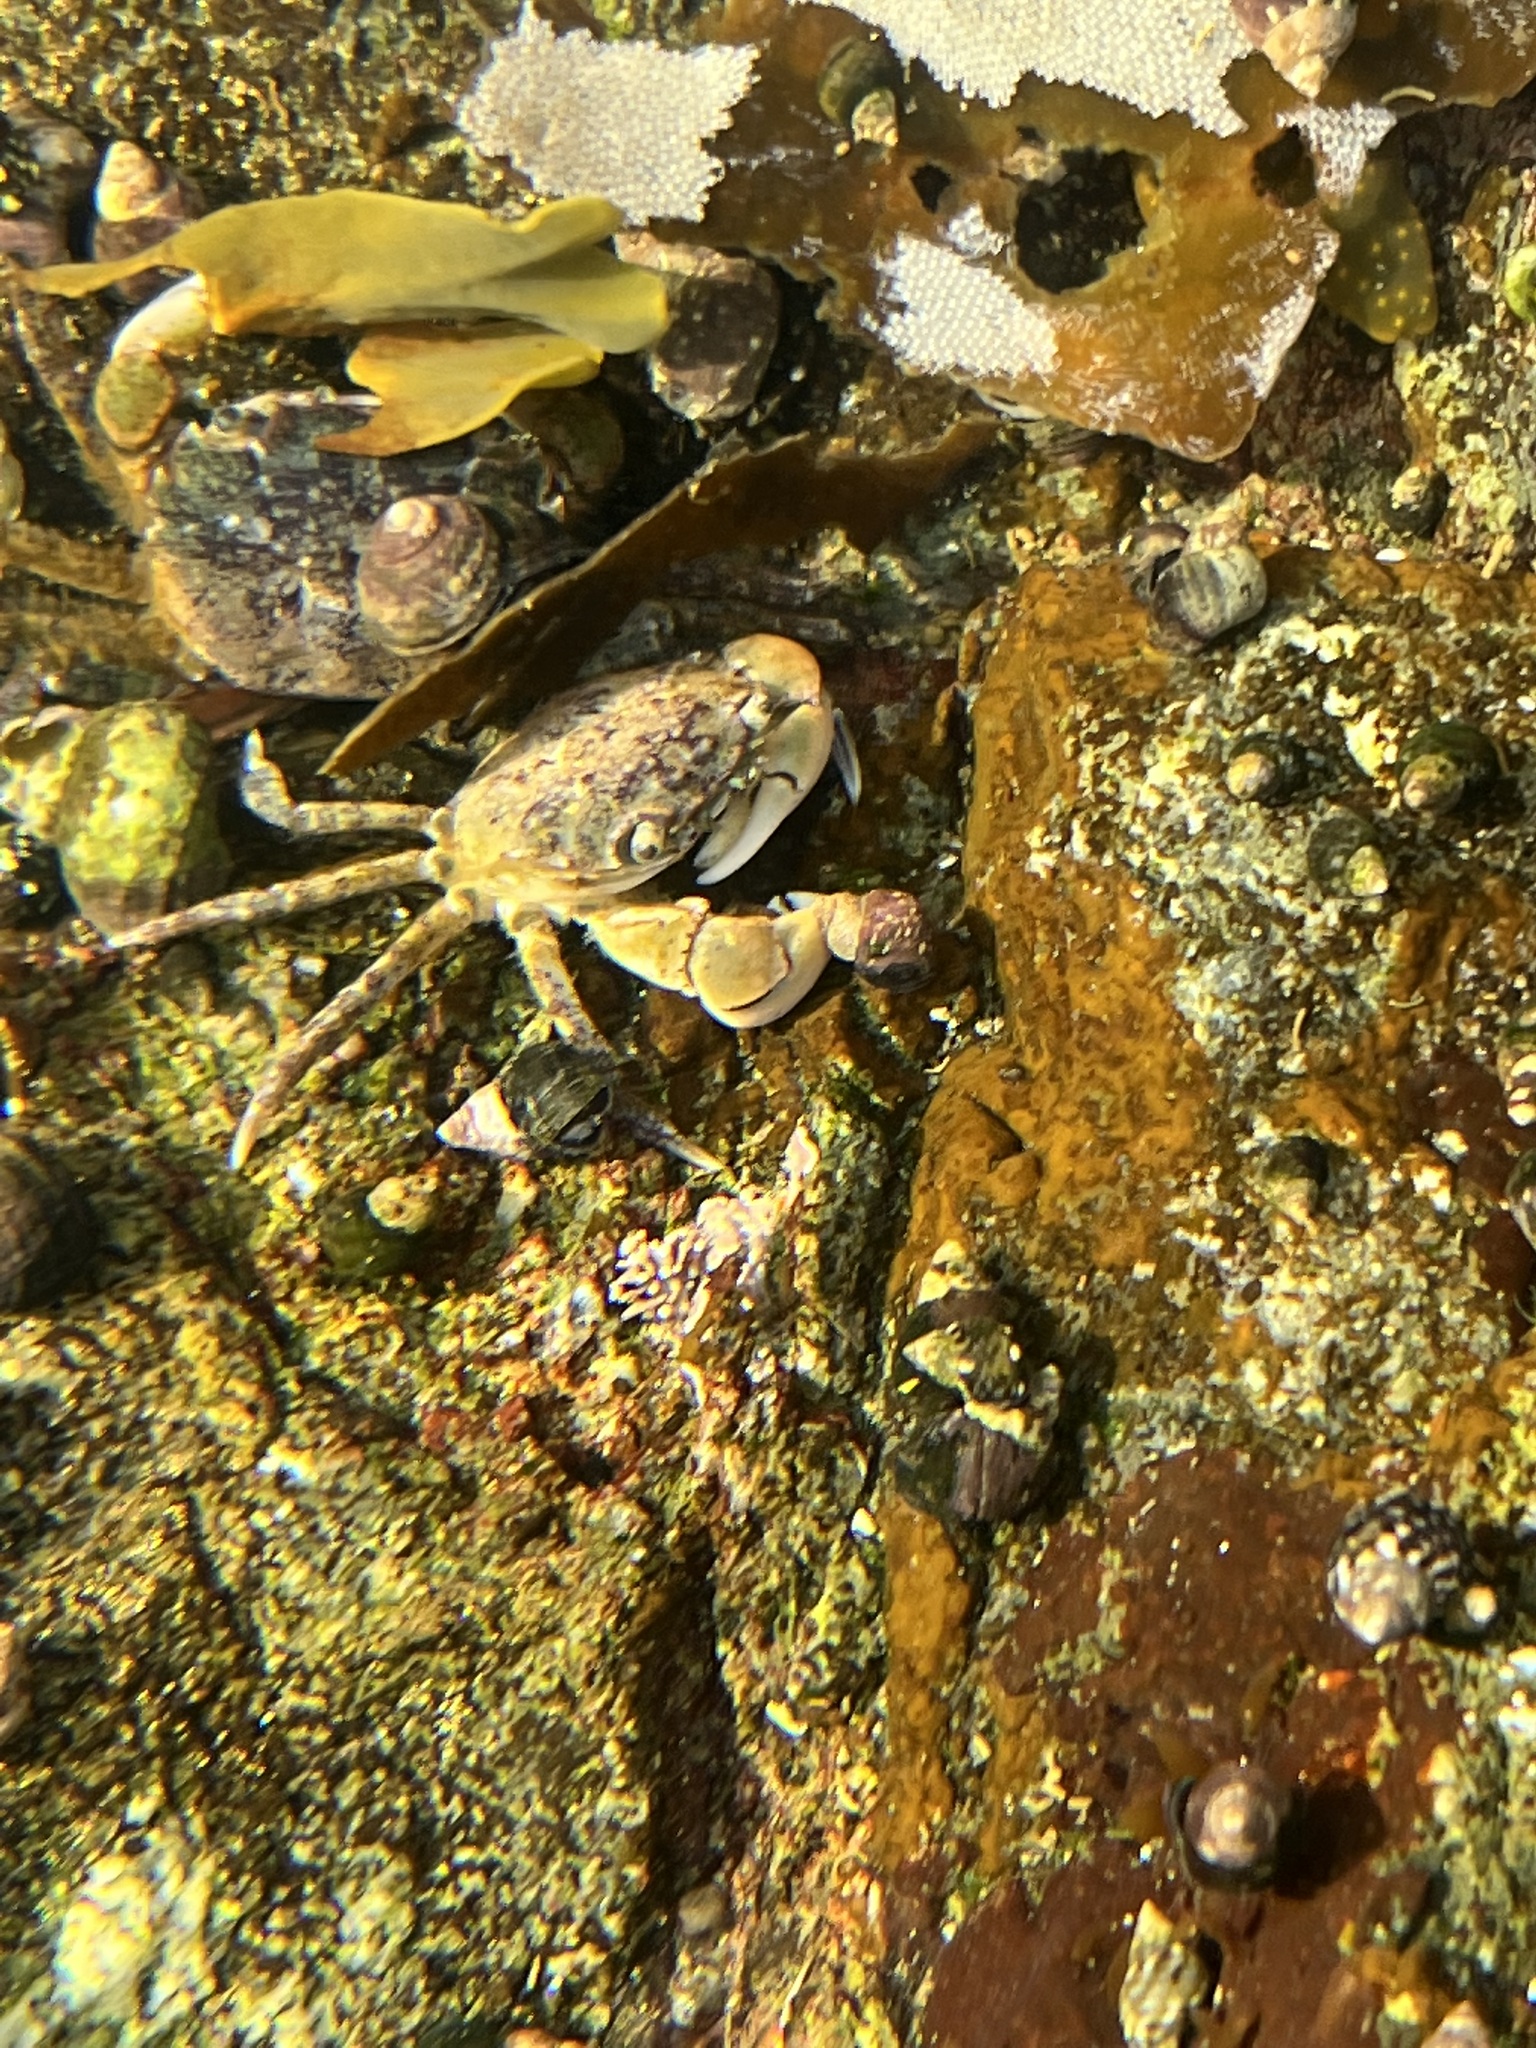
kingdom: Animalia
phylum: Arthropoda
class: Malacostraca
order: Decapoda
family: Varunidae
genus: Hemigrapsus
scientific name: Hemigrapsus oregonensis
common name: Yellow shore crab
